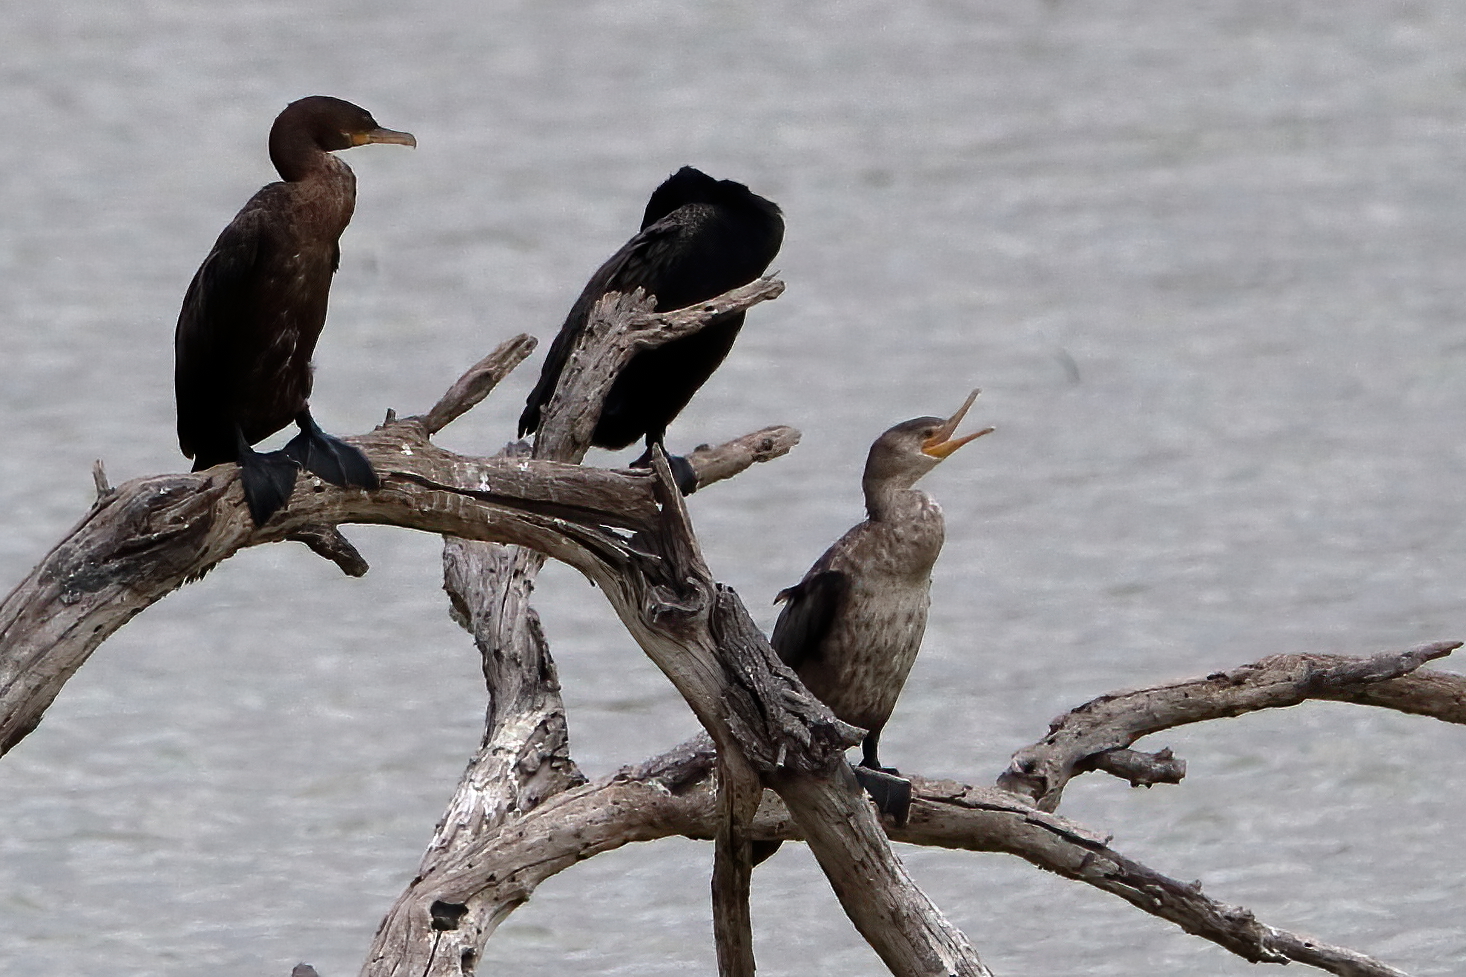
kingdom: Animalia
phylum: Chordata
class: Aves
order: Suliformes
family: Phalacrocoracidae
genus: Phalacrocorax
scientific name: Phalacrocorax brasilianus
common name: Neotropic cormorant
